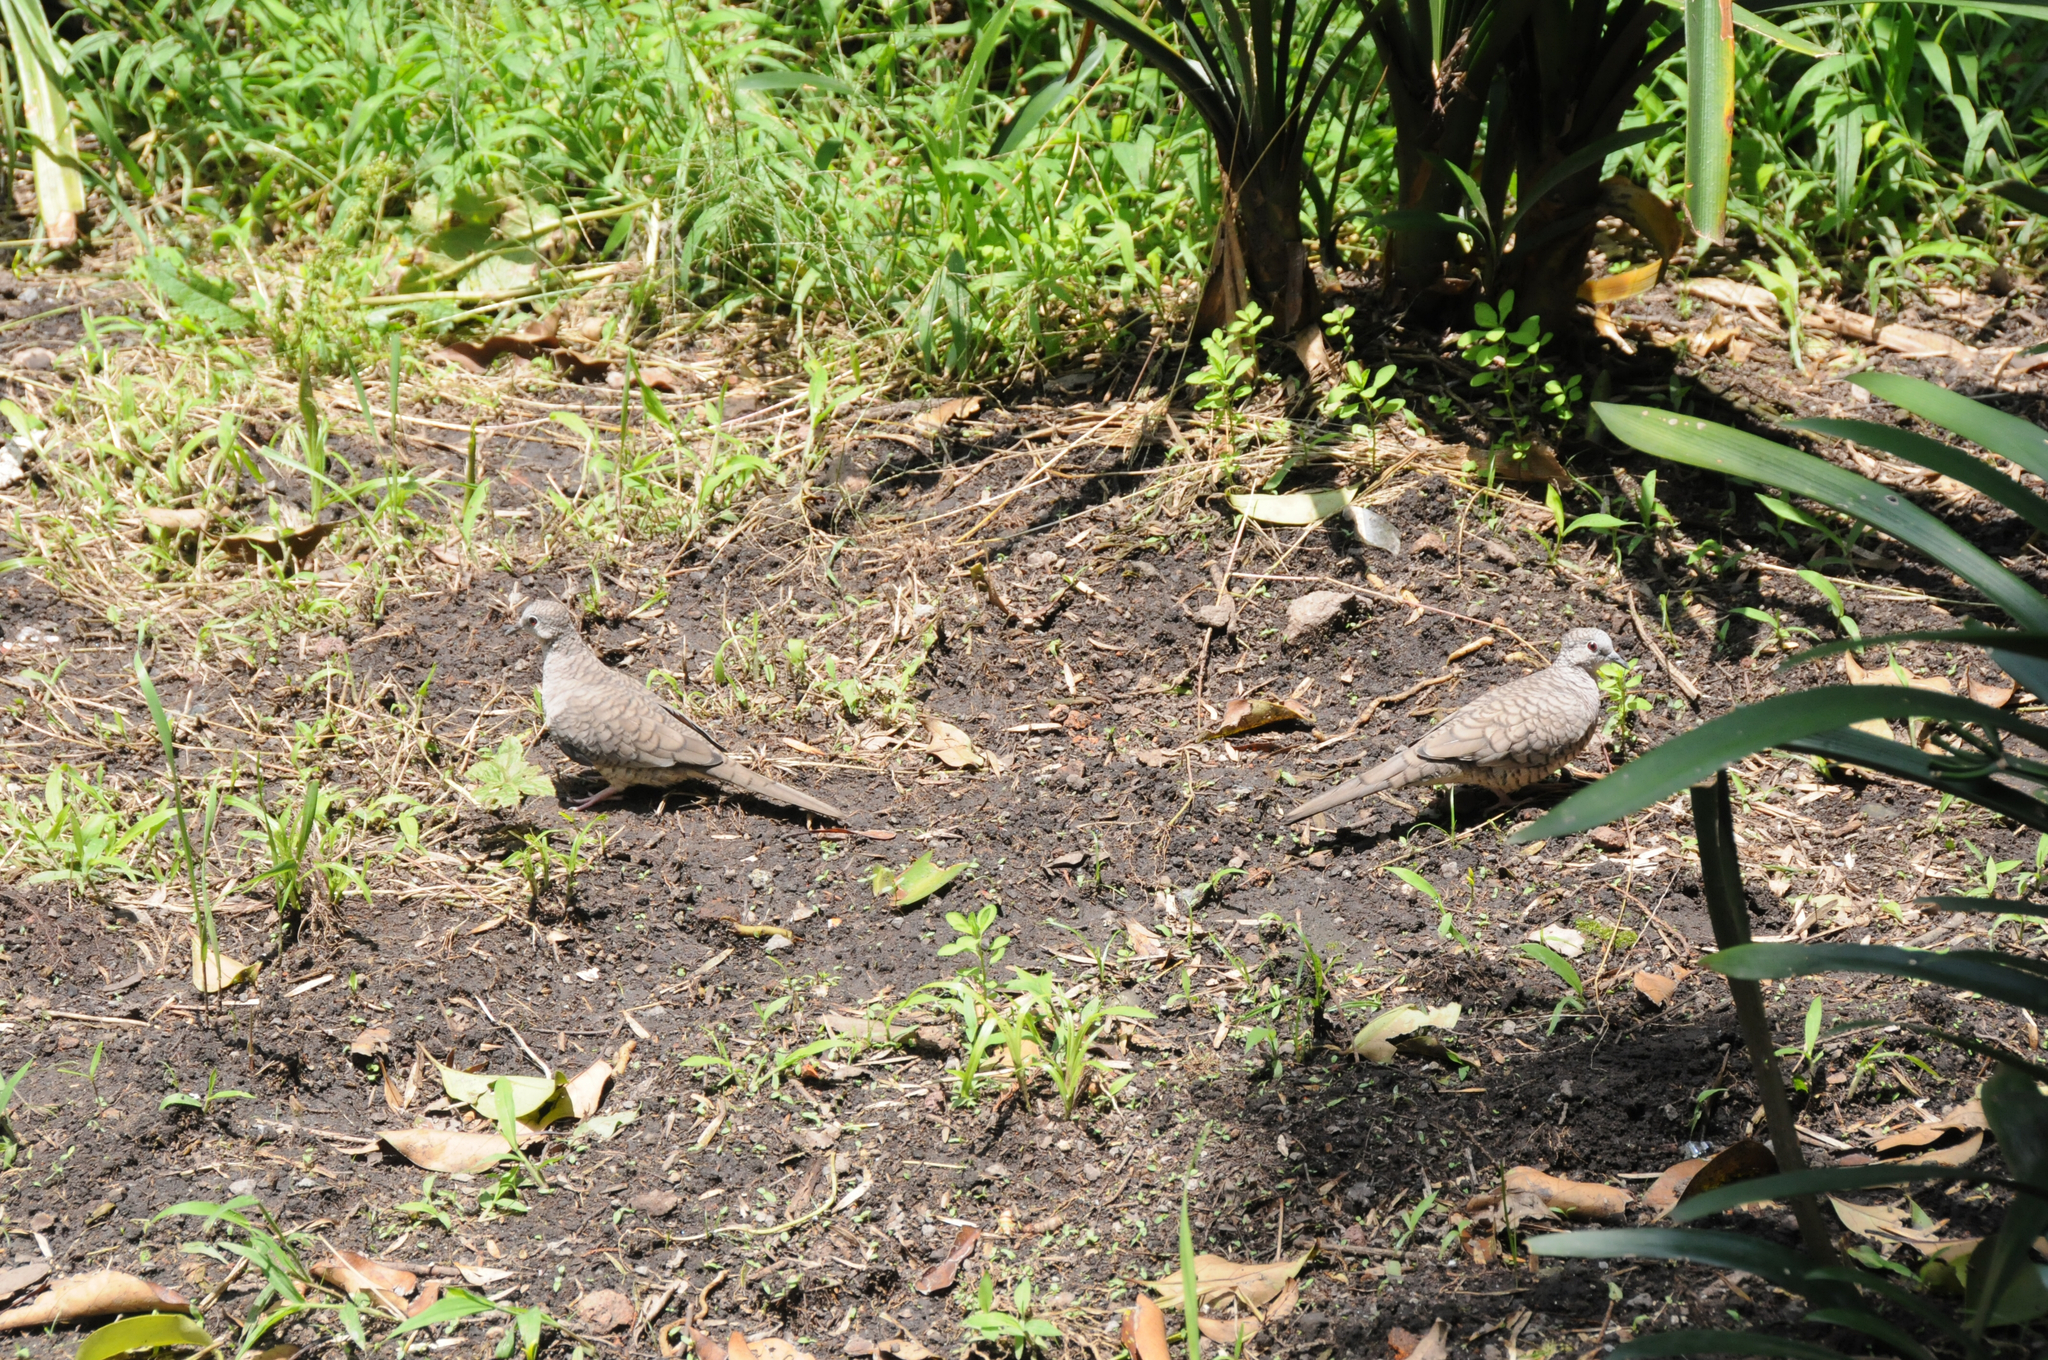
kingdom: Animalia
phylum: Chordata
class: Aves
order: Columbiformes
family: Columbidae
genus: Columbina
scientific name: Columbina inca
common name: Inca dove
